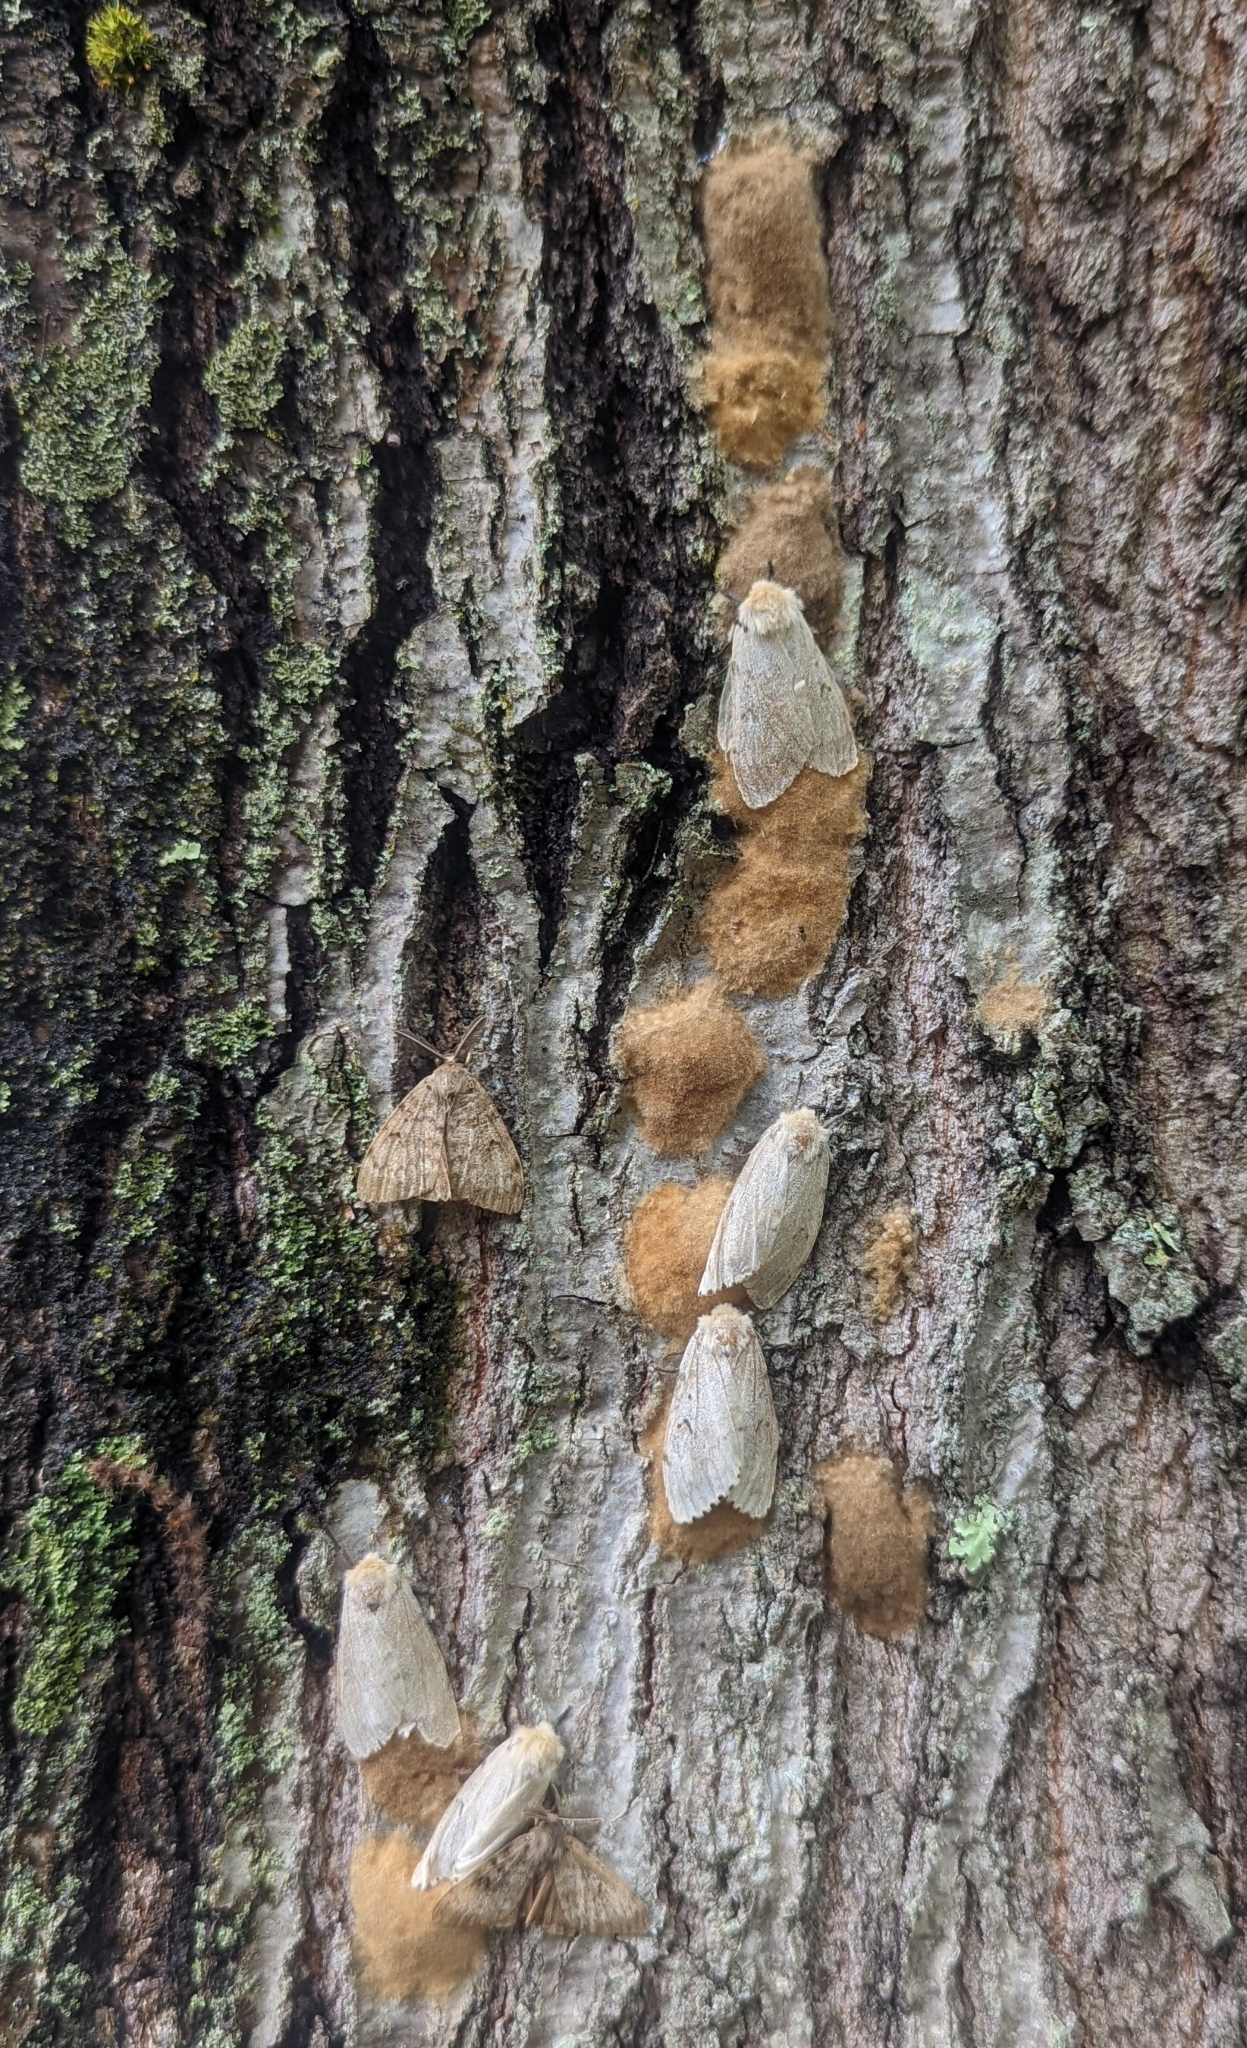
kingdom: Animalia
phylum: Arthropoda
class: Insecta
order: Lepidoptera
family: Erebidae
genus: Lymantria
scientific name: Lymantria dispar
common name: Gypsy moth
